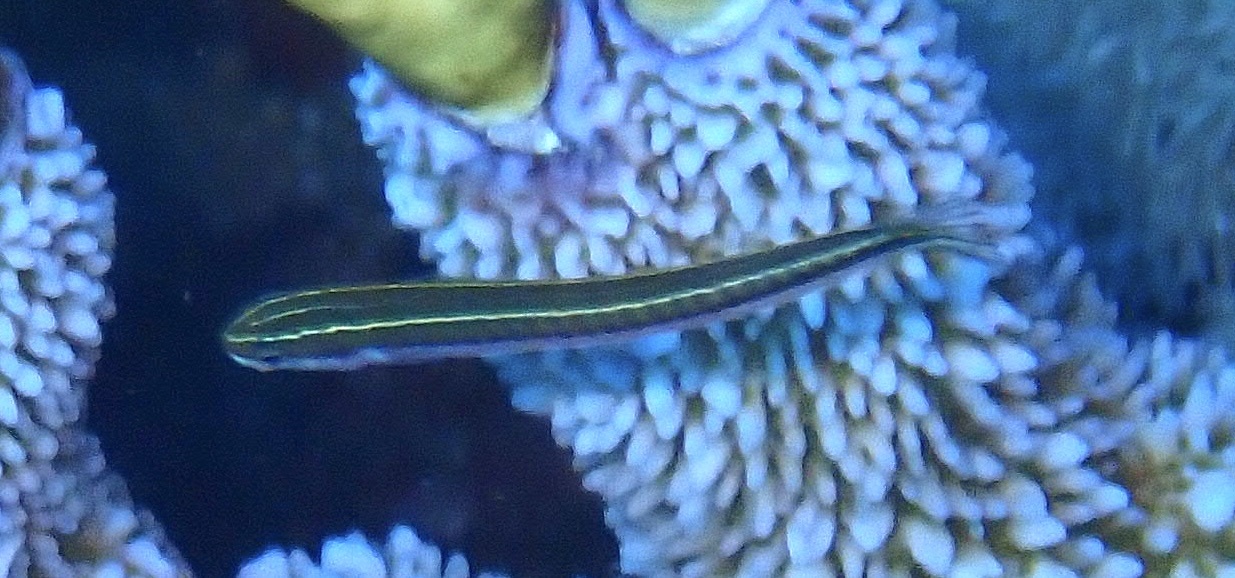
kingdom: Animalia
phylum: Chordata
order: Perciformes
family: Blenniidae
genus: Plagiotremus
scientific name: Plagiotremus tapeinosoma
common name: Hit and run blenny
